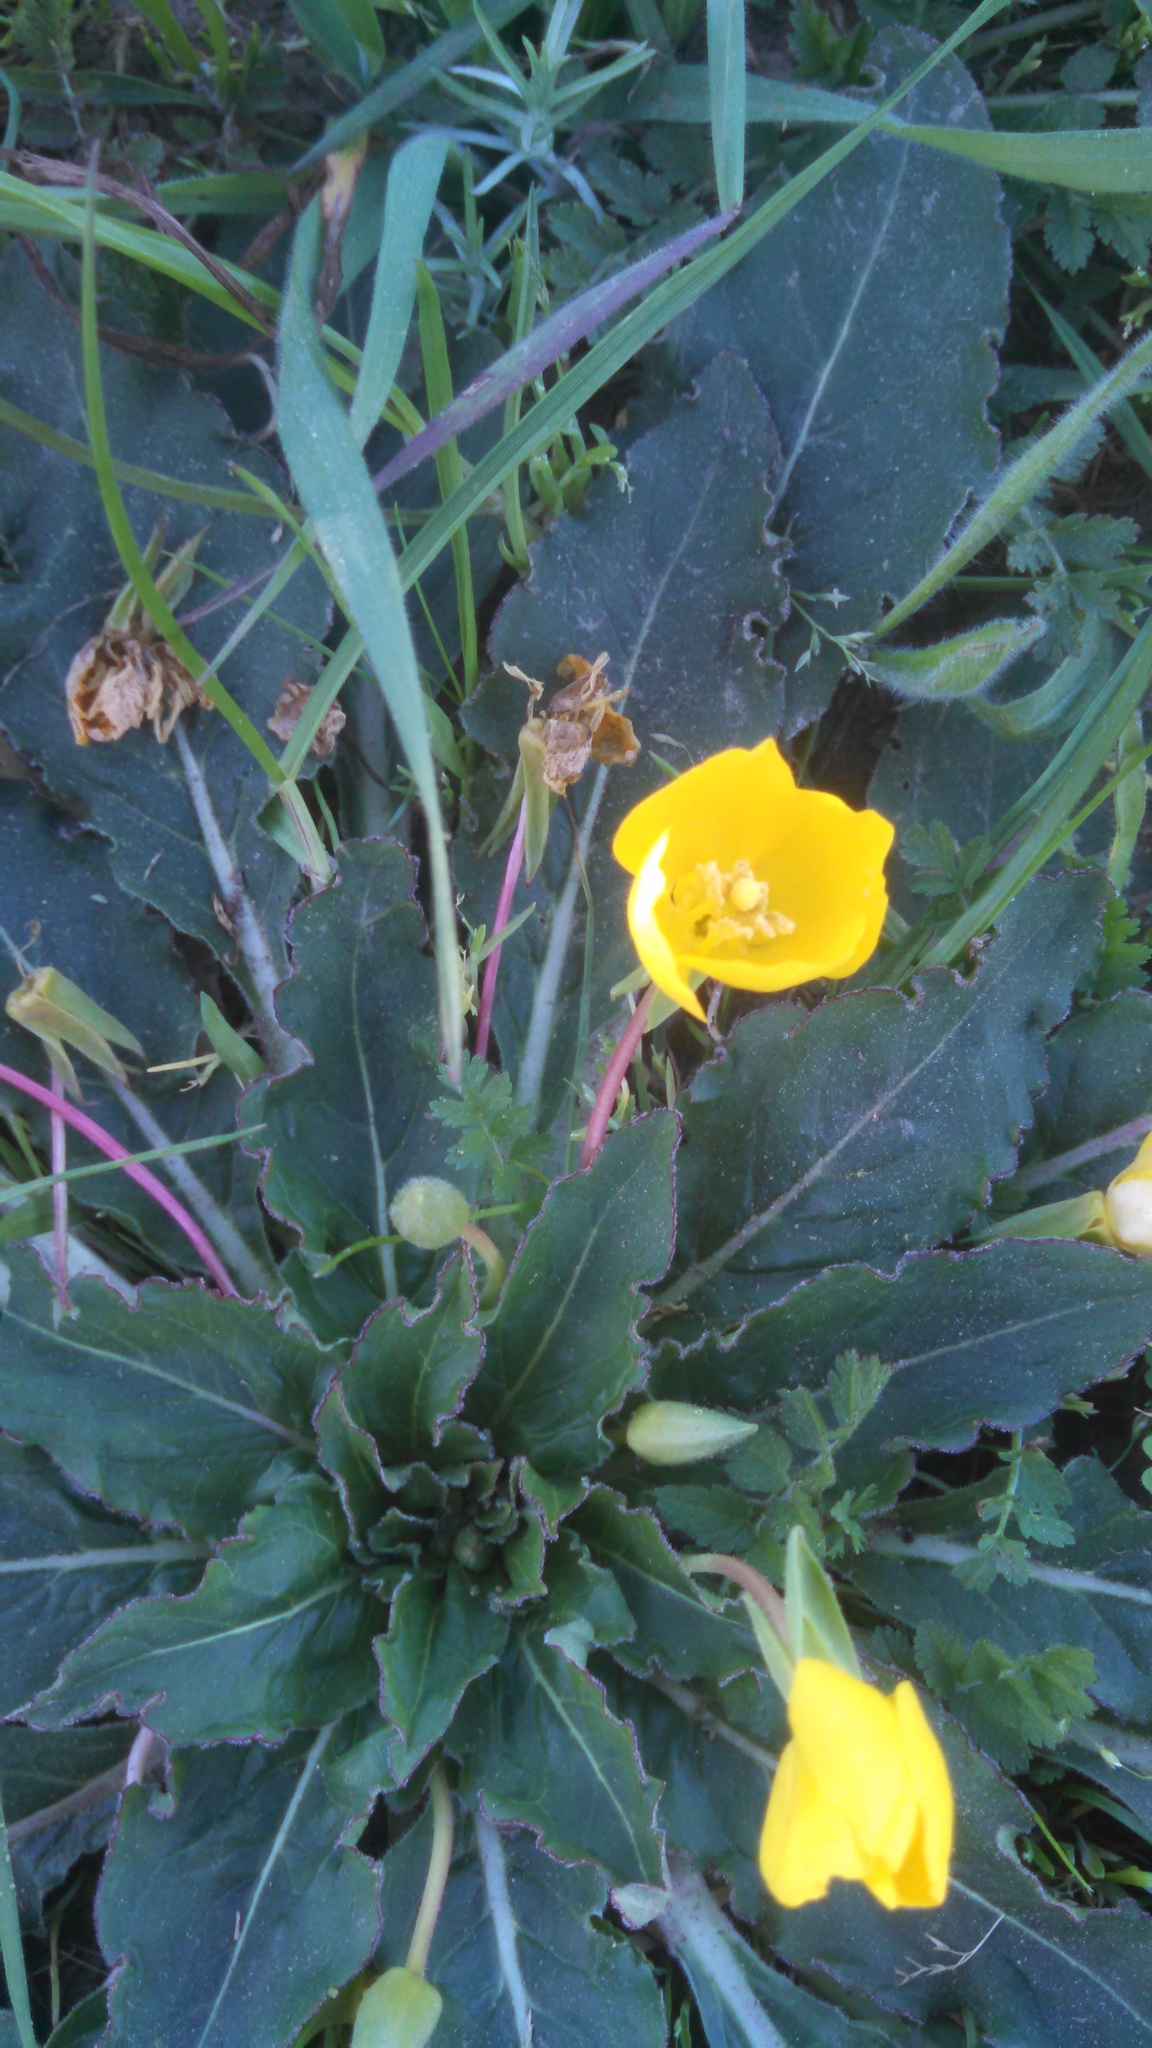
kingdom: Plantae
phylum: Tracheophyta
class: Magnoliopsida
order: Myrtales
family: Onagraceae
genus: Taraxia
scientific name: Taraxia ovata
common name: Goldeneggs
